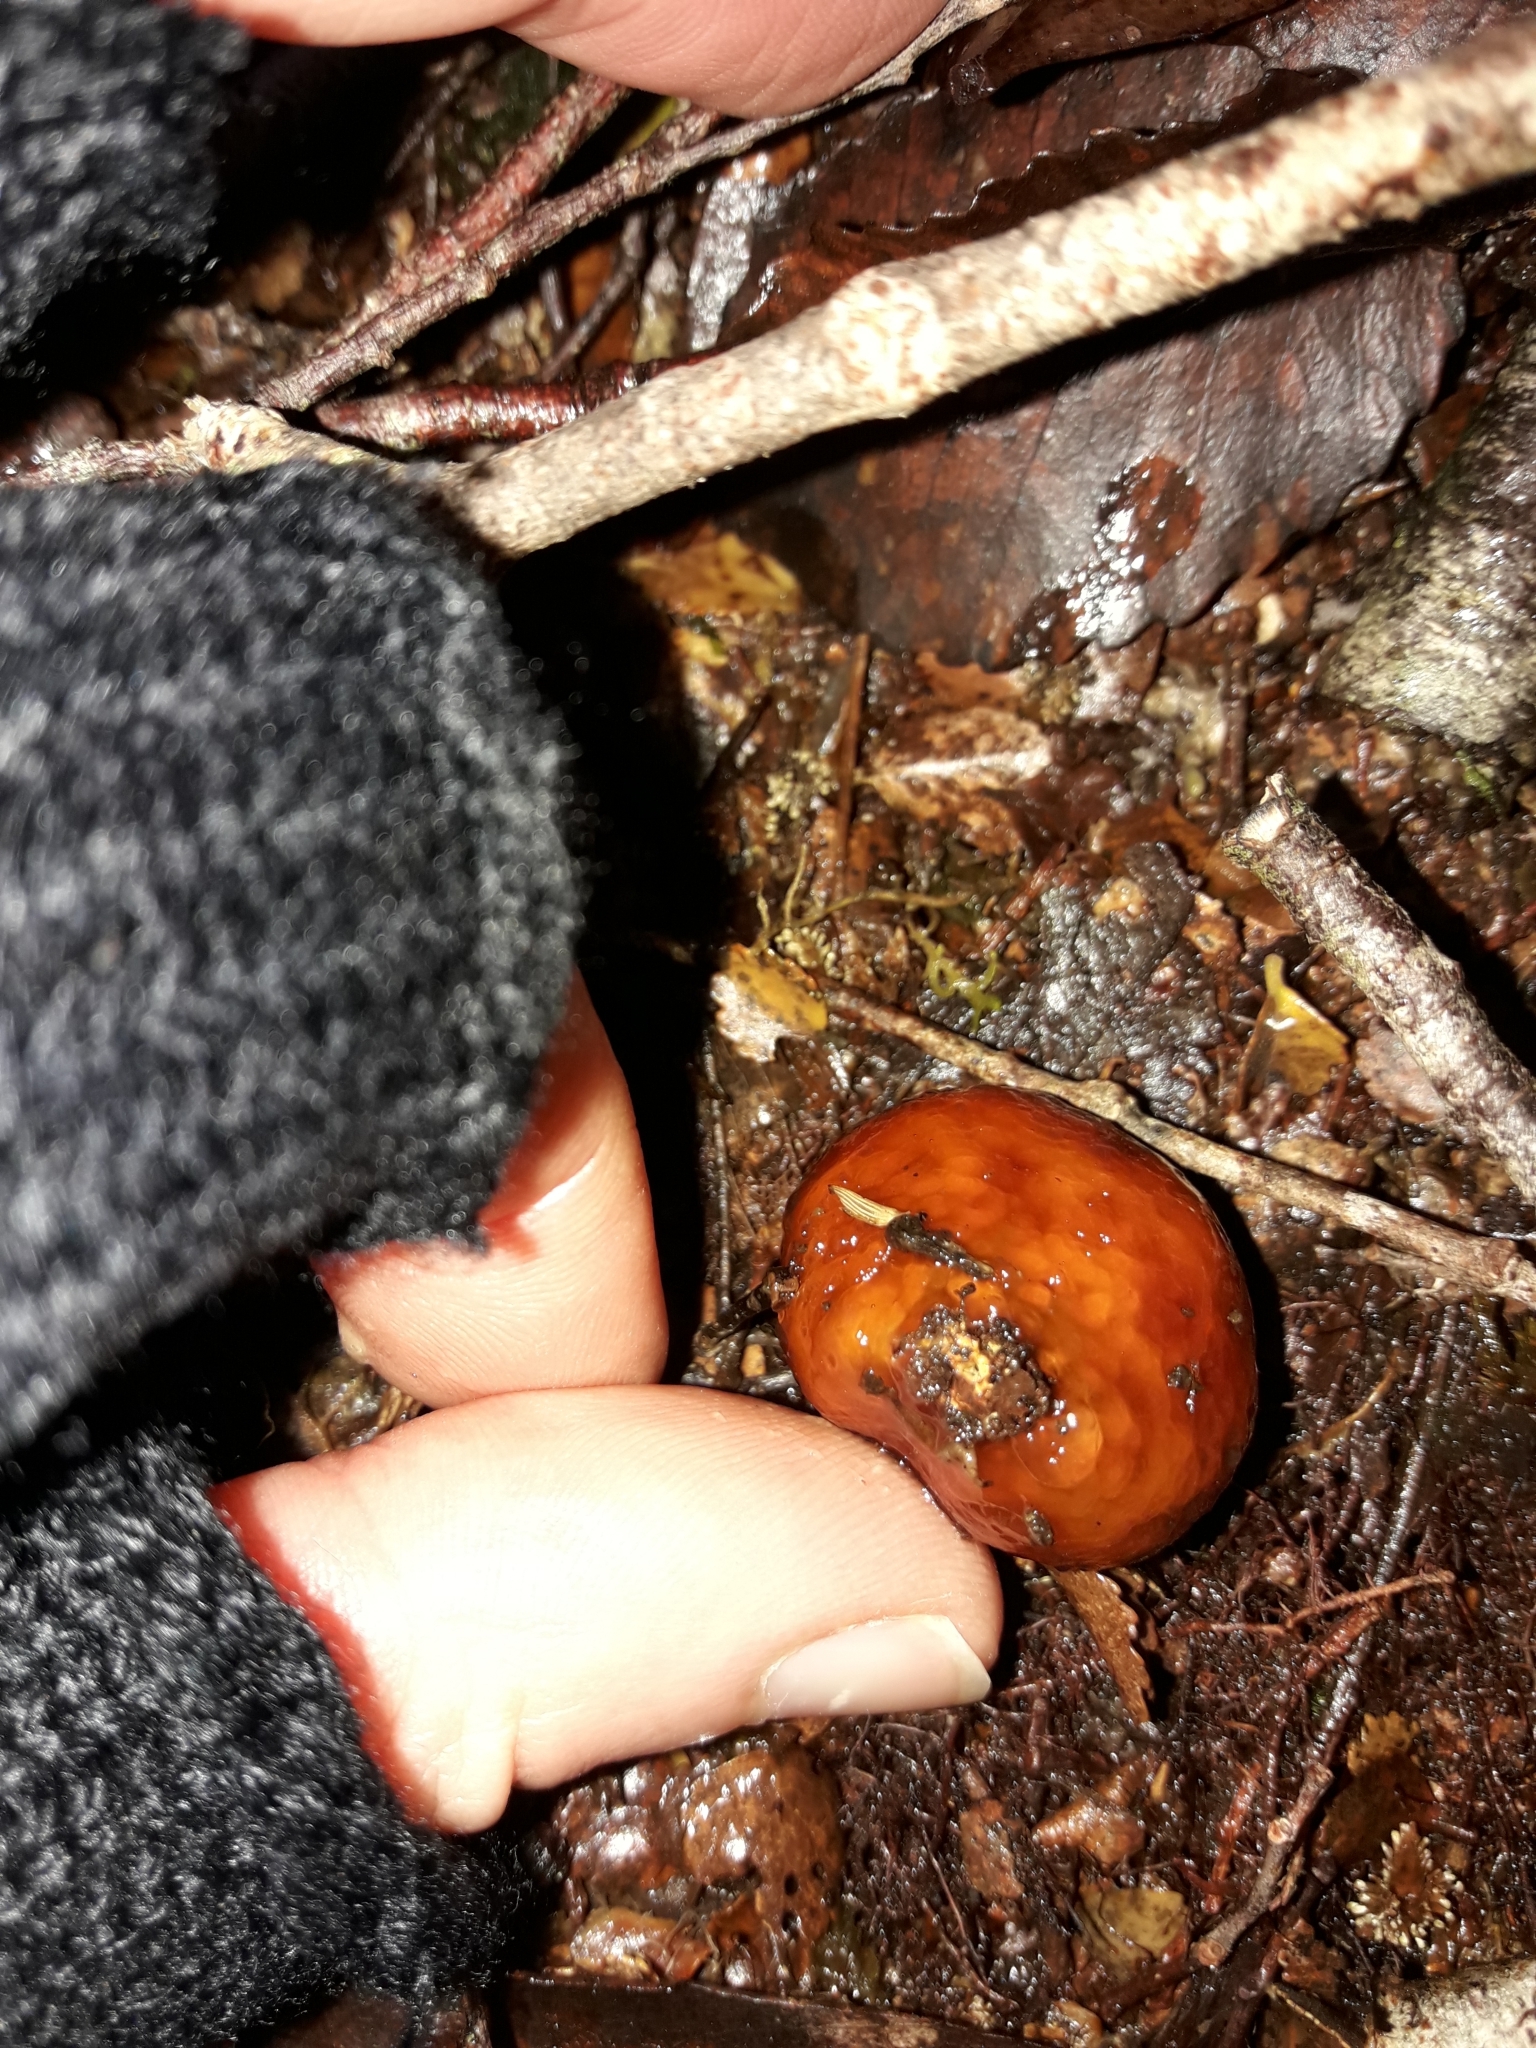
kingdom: Fungi
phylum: Basidiomycota
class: Agaricomycetes
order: Agaricales
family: Cortinariaceae
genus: Cortinarius
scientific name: Cortinarius beeverorum
